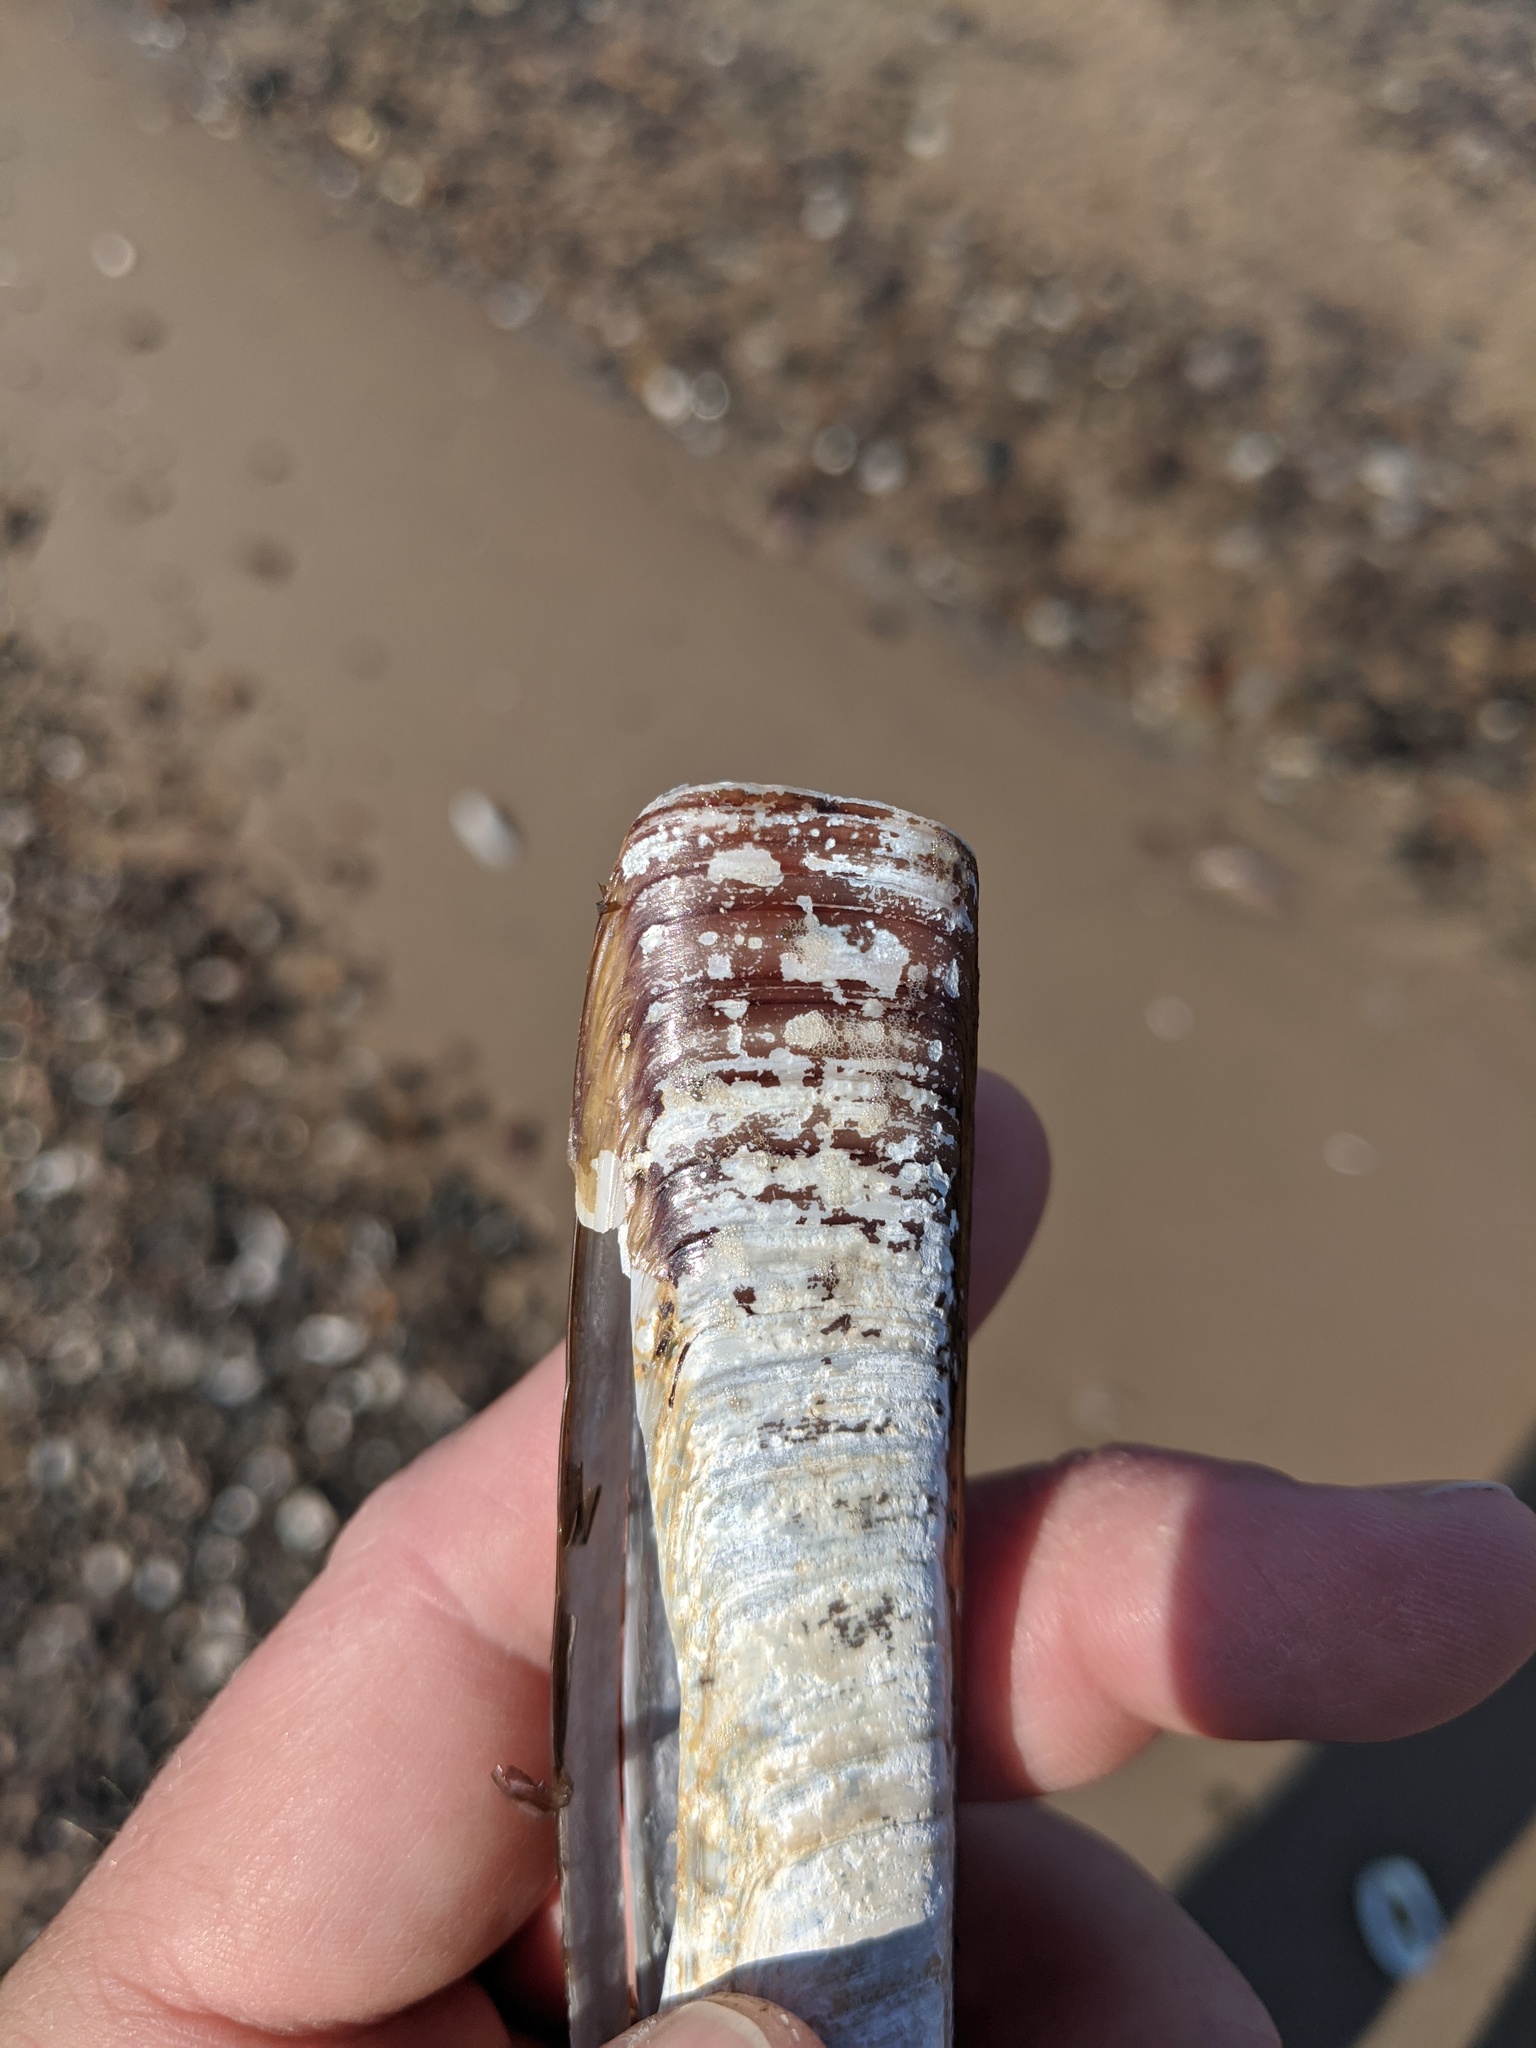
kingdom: Animalia
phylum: Mollusca
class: Bivalvia
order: Adapedonta
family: Pharidae
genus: Ensis
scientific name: Ensis leei
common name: American jack knife clam
